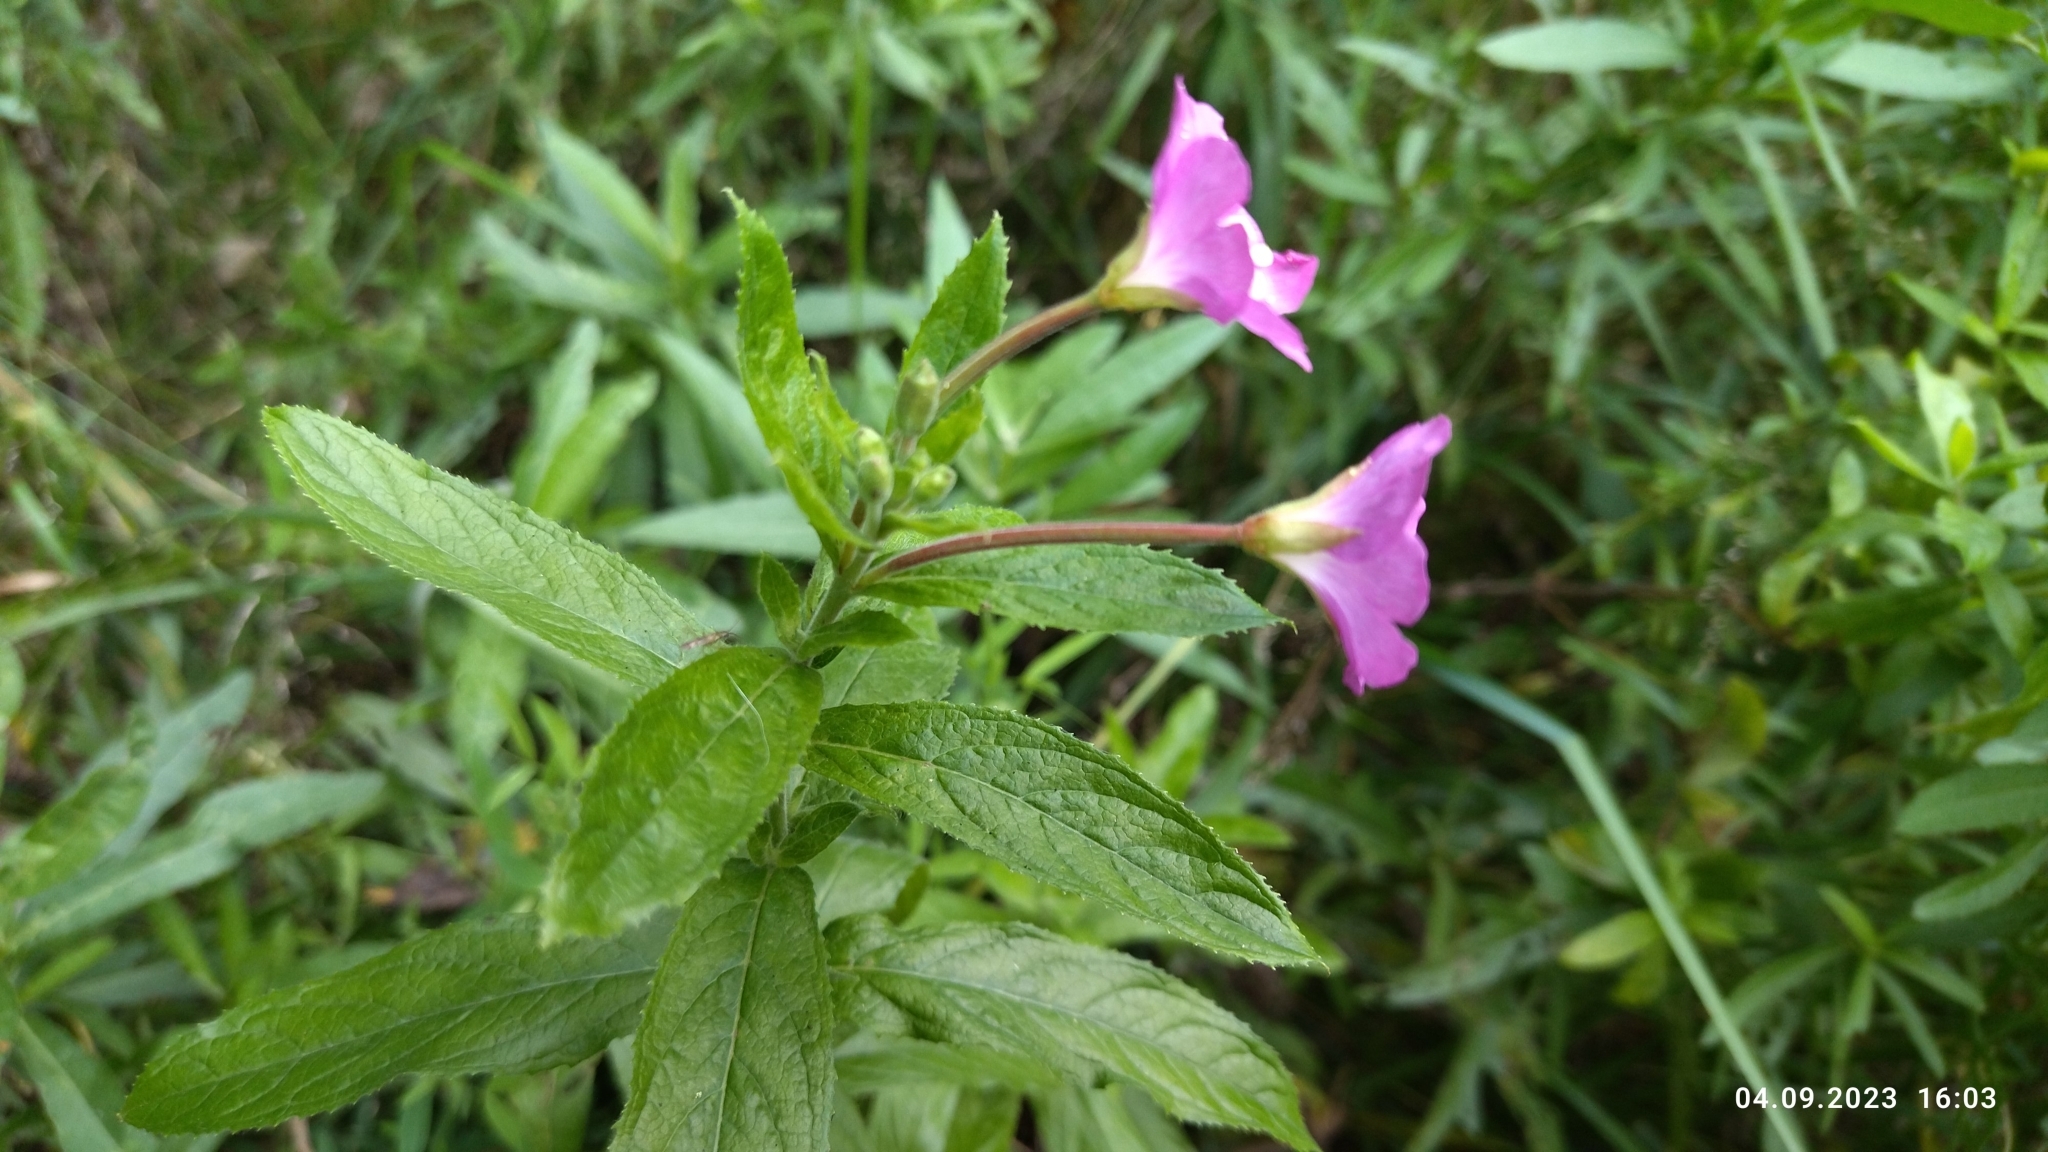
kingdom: Plantae
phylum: Tracheophyta
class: Magnoliopsida
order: Myrtales
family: Onagraceae
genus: Epilobium
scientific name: Epilobium hirsutum
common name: Great willowherb
